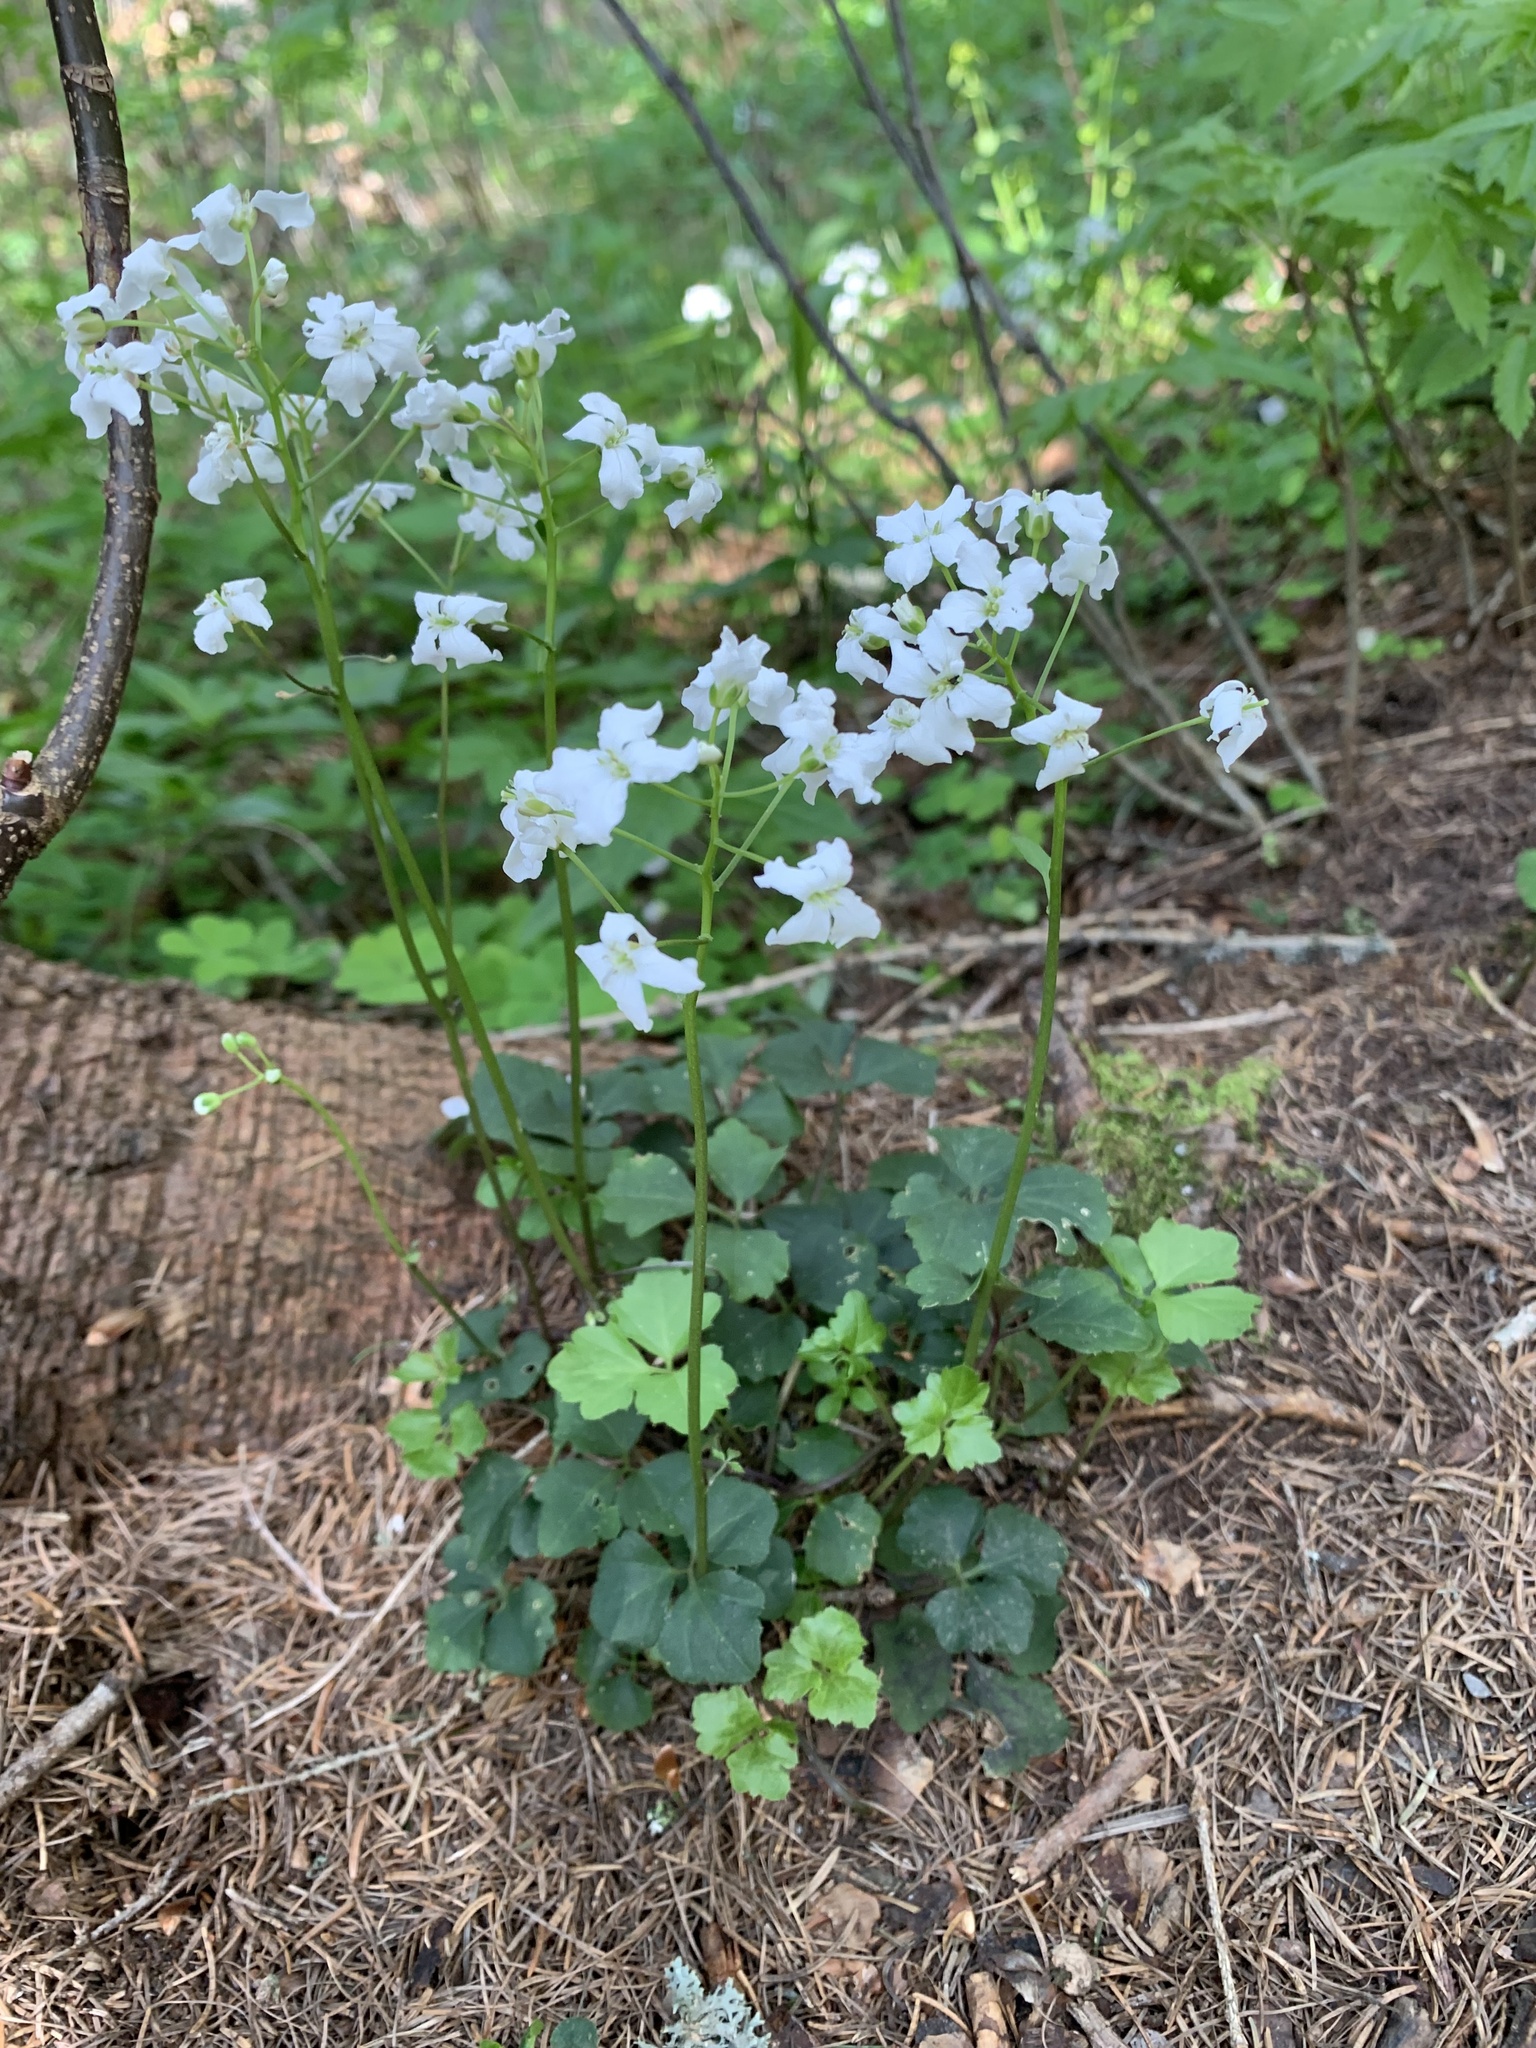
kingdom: Plantae
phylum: Tracheophyta
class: Magnoliopsida
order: Brassicales
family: Brassicaceae
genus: Cardamine
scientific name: Cardamine trifolia
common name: Trefoil cress
